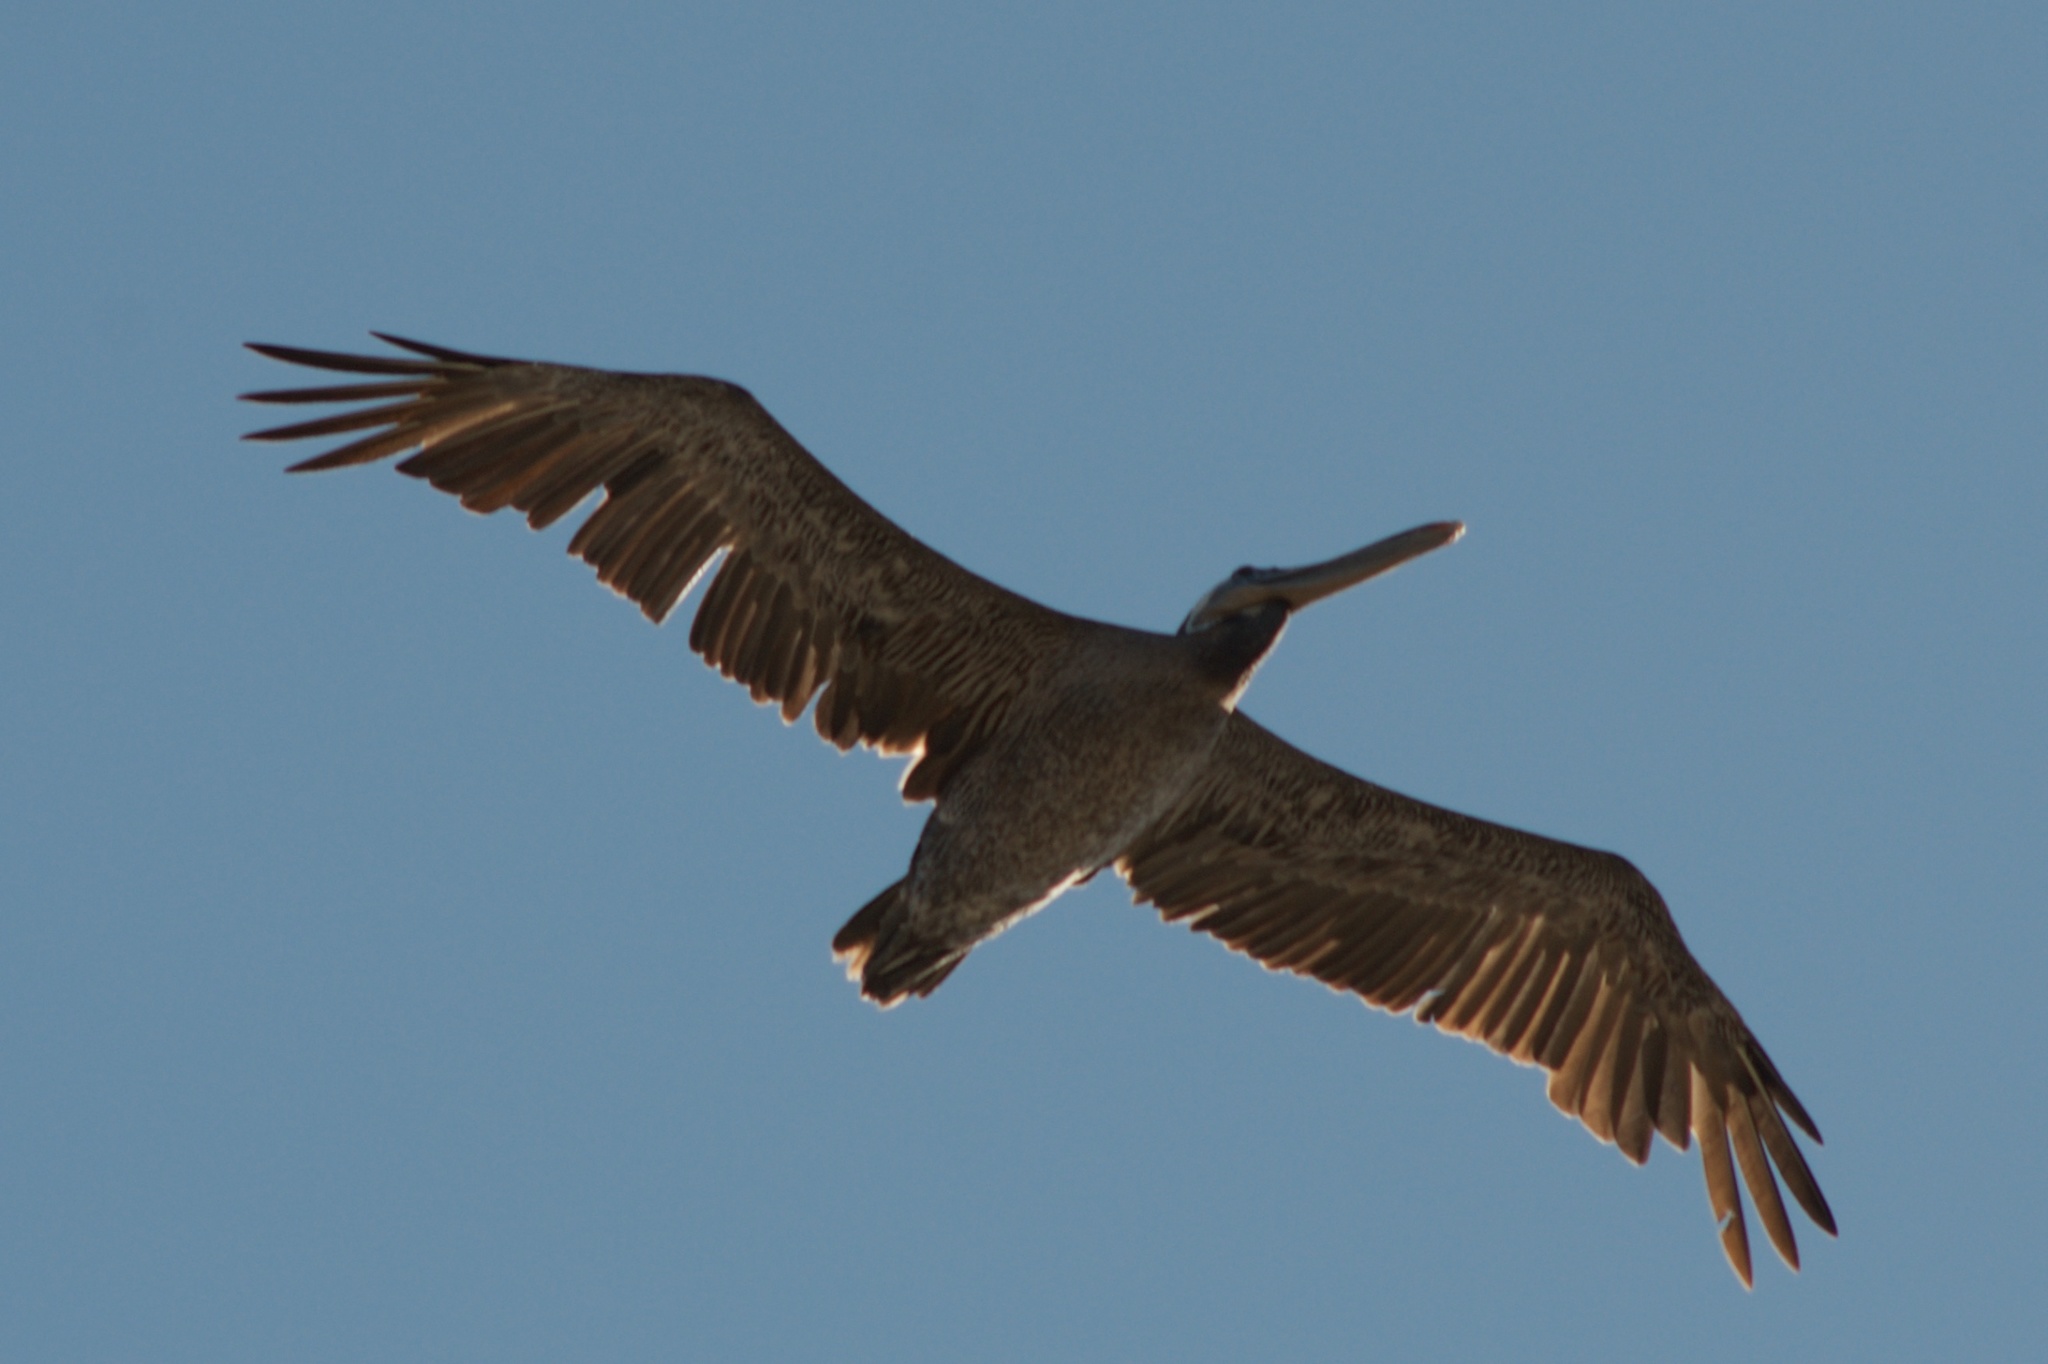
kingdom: Animalia
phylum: Chordata
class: Aves
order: Pelecaniformes
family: Pelecanidae
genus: Pelecanus
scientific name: Pelecanus occidentalis
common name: Brown pelican
